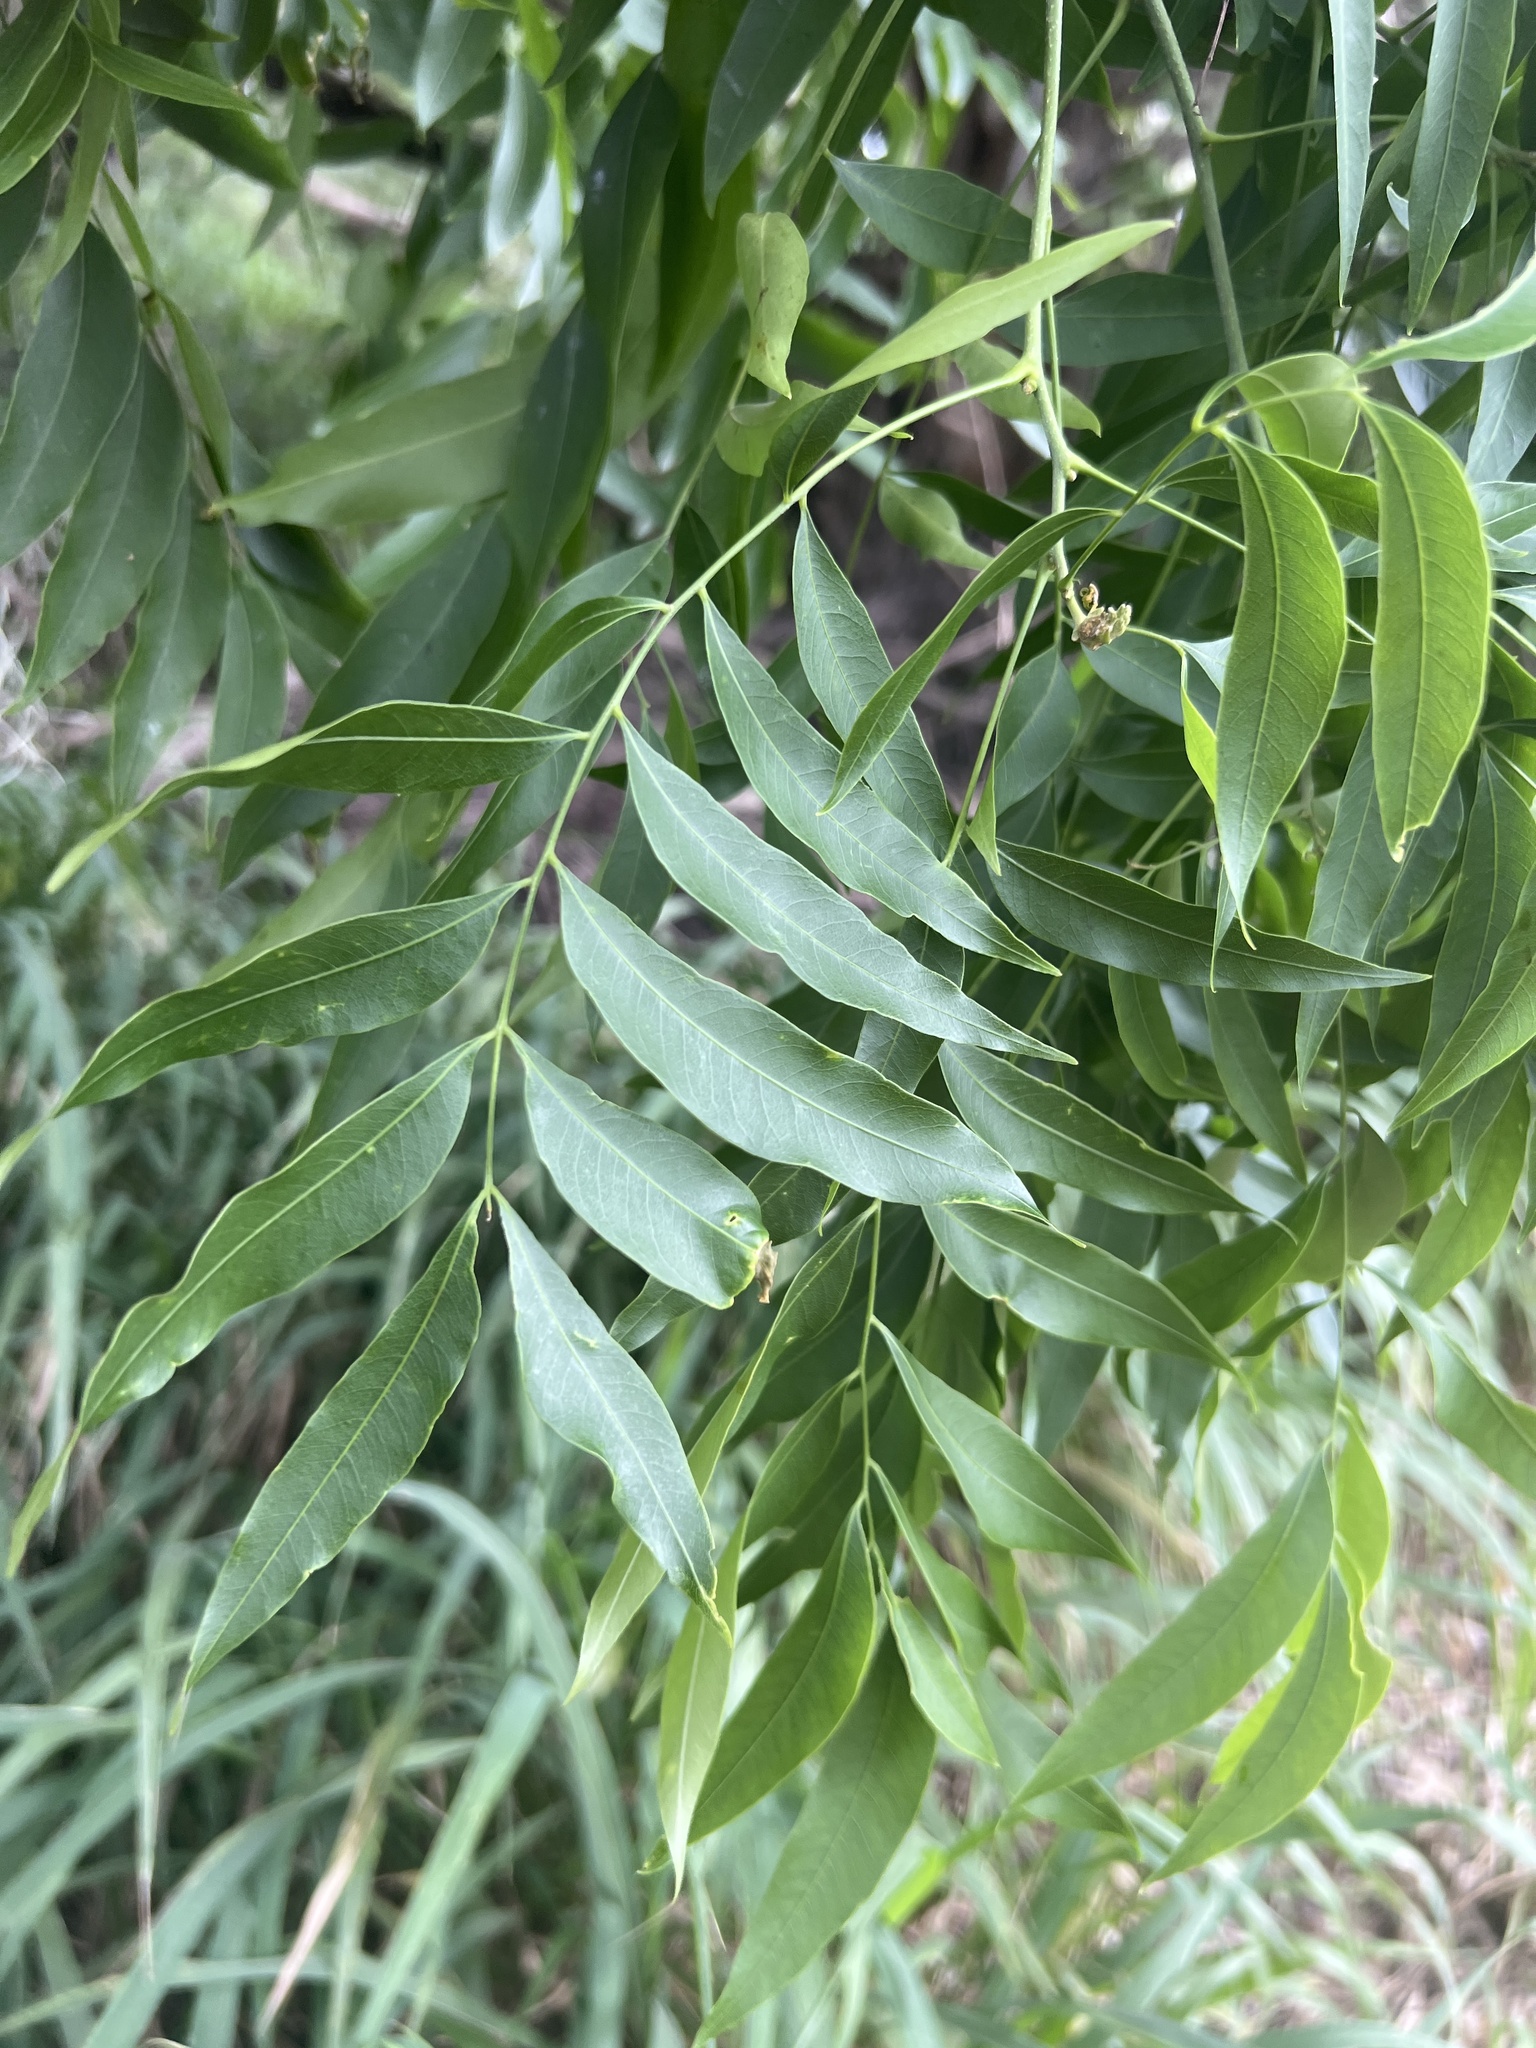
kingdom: Plantae
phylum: Tracheophyta
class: Magnoliopsida
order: Sapindales
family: Sapindaceae
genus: Sapindus
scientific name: Sapindus drummondii
